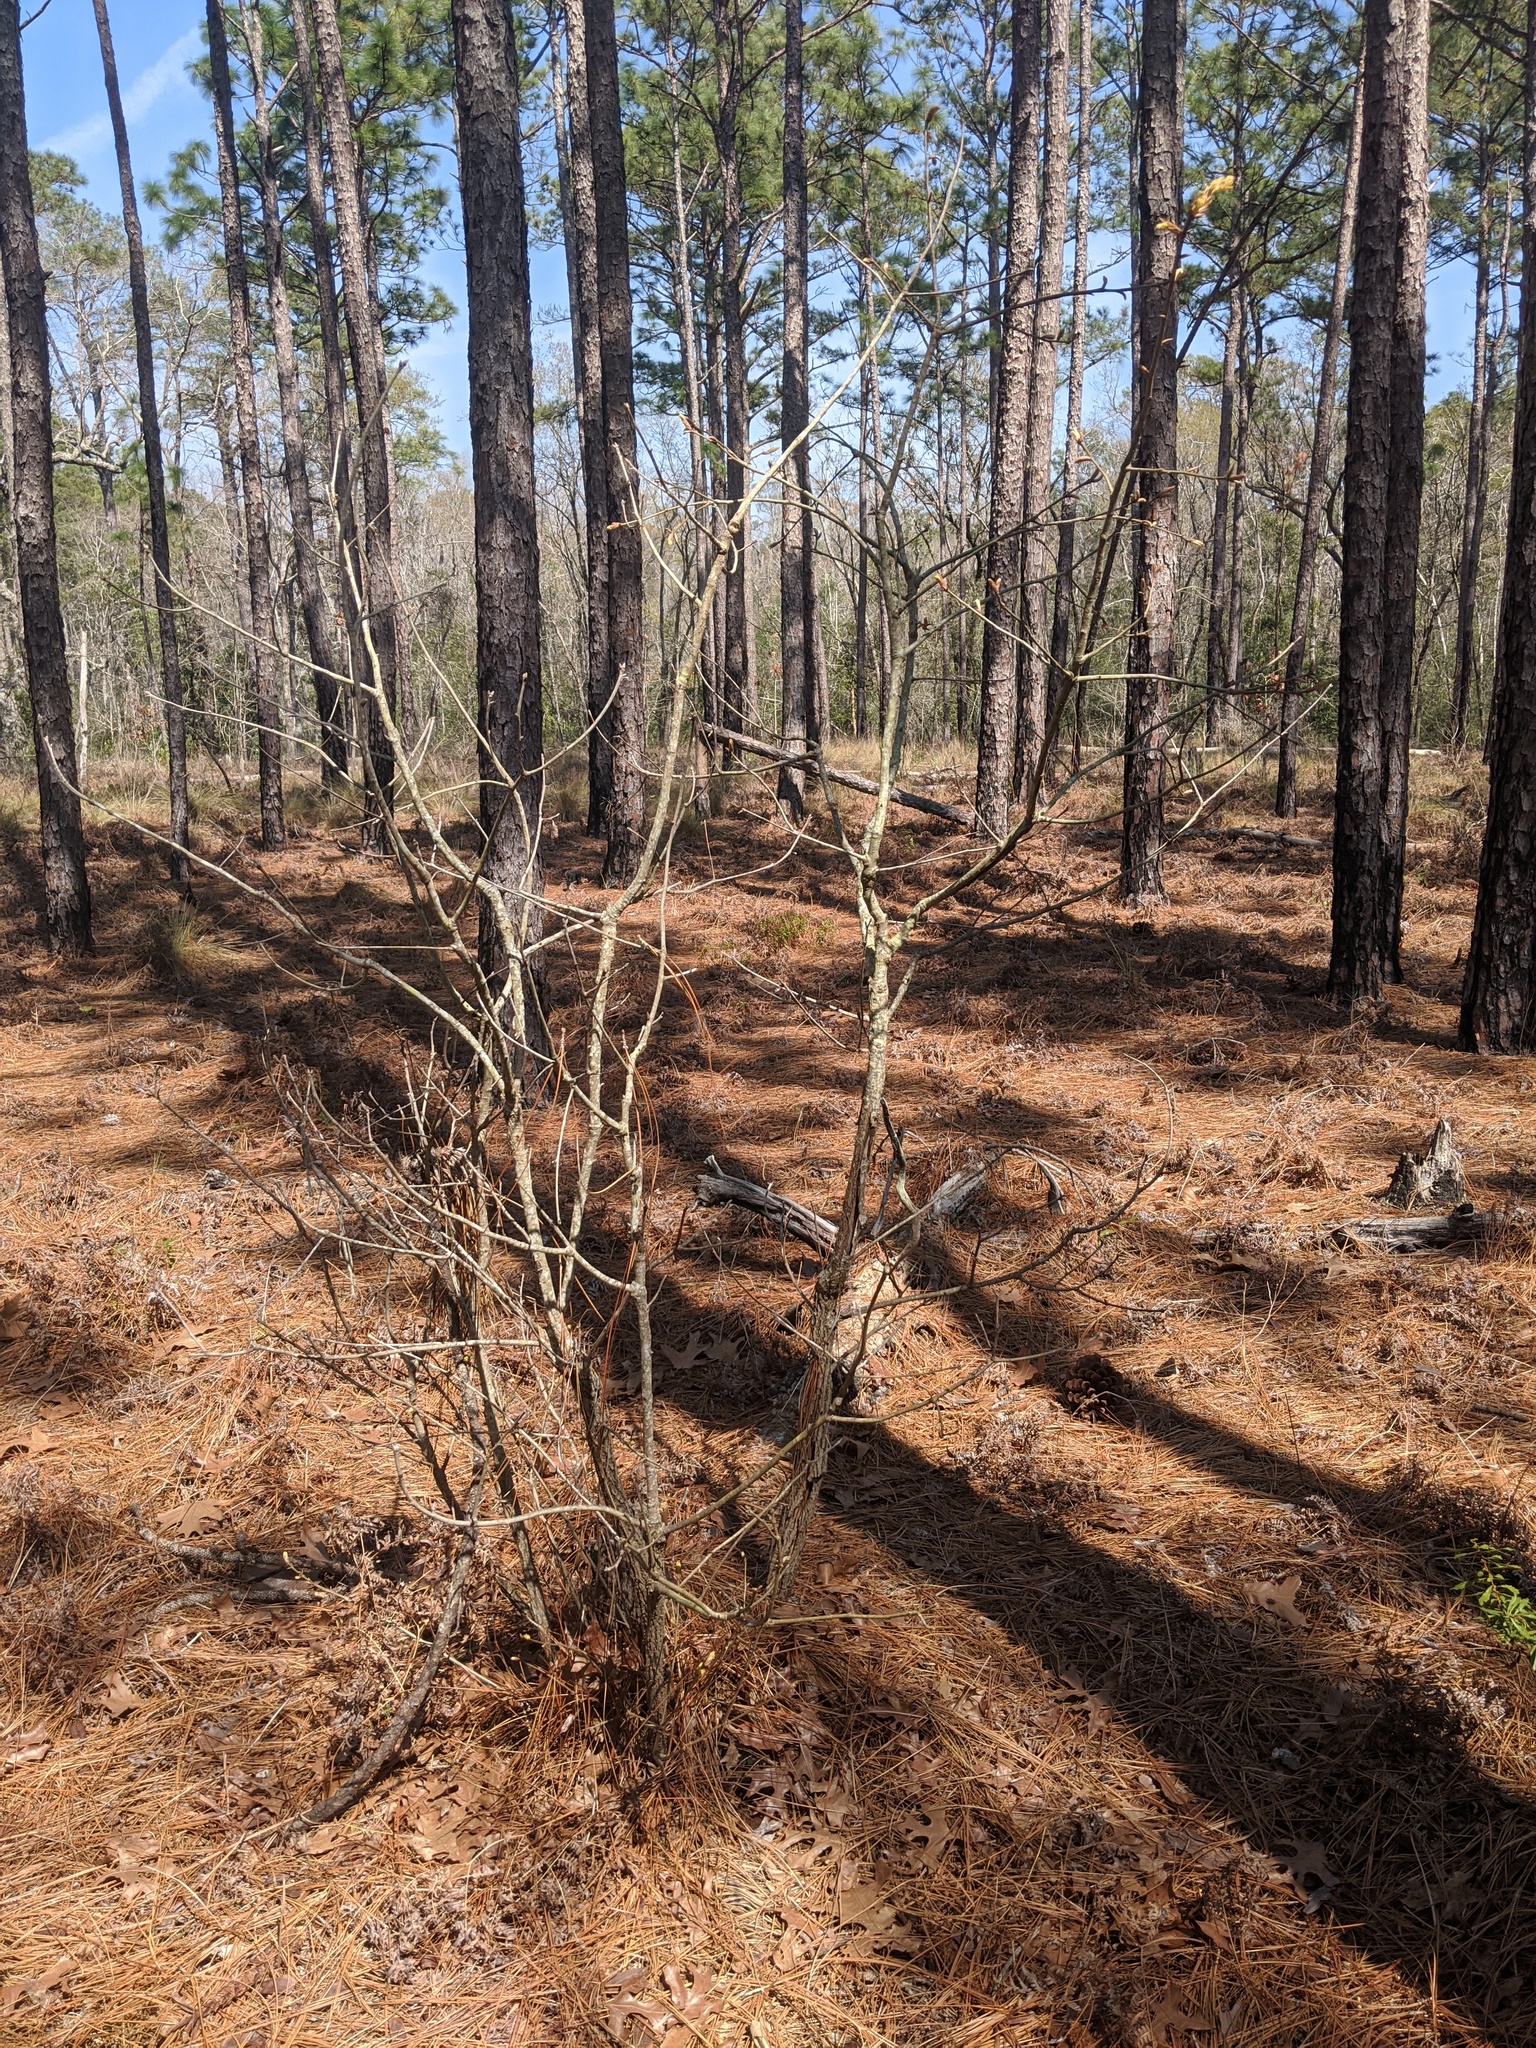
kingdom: Plantae
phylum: Tracheophyta
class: Magnoliopsida
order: Fagales
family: Fagaceae
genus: Quercus
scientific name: Quercus laevis
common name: Turkey oak
